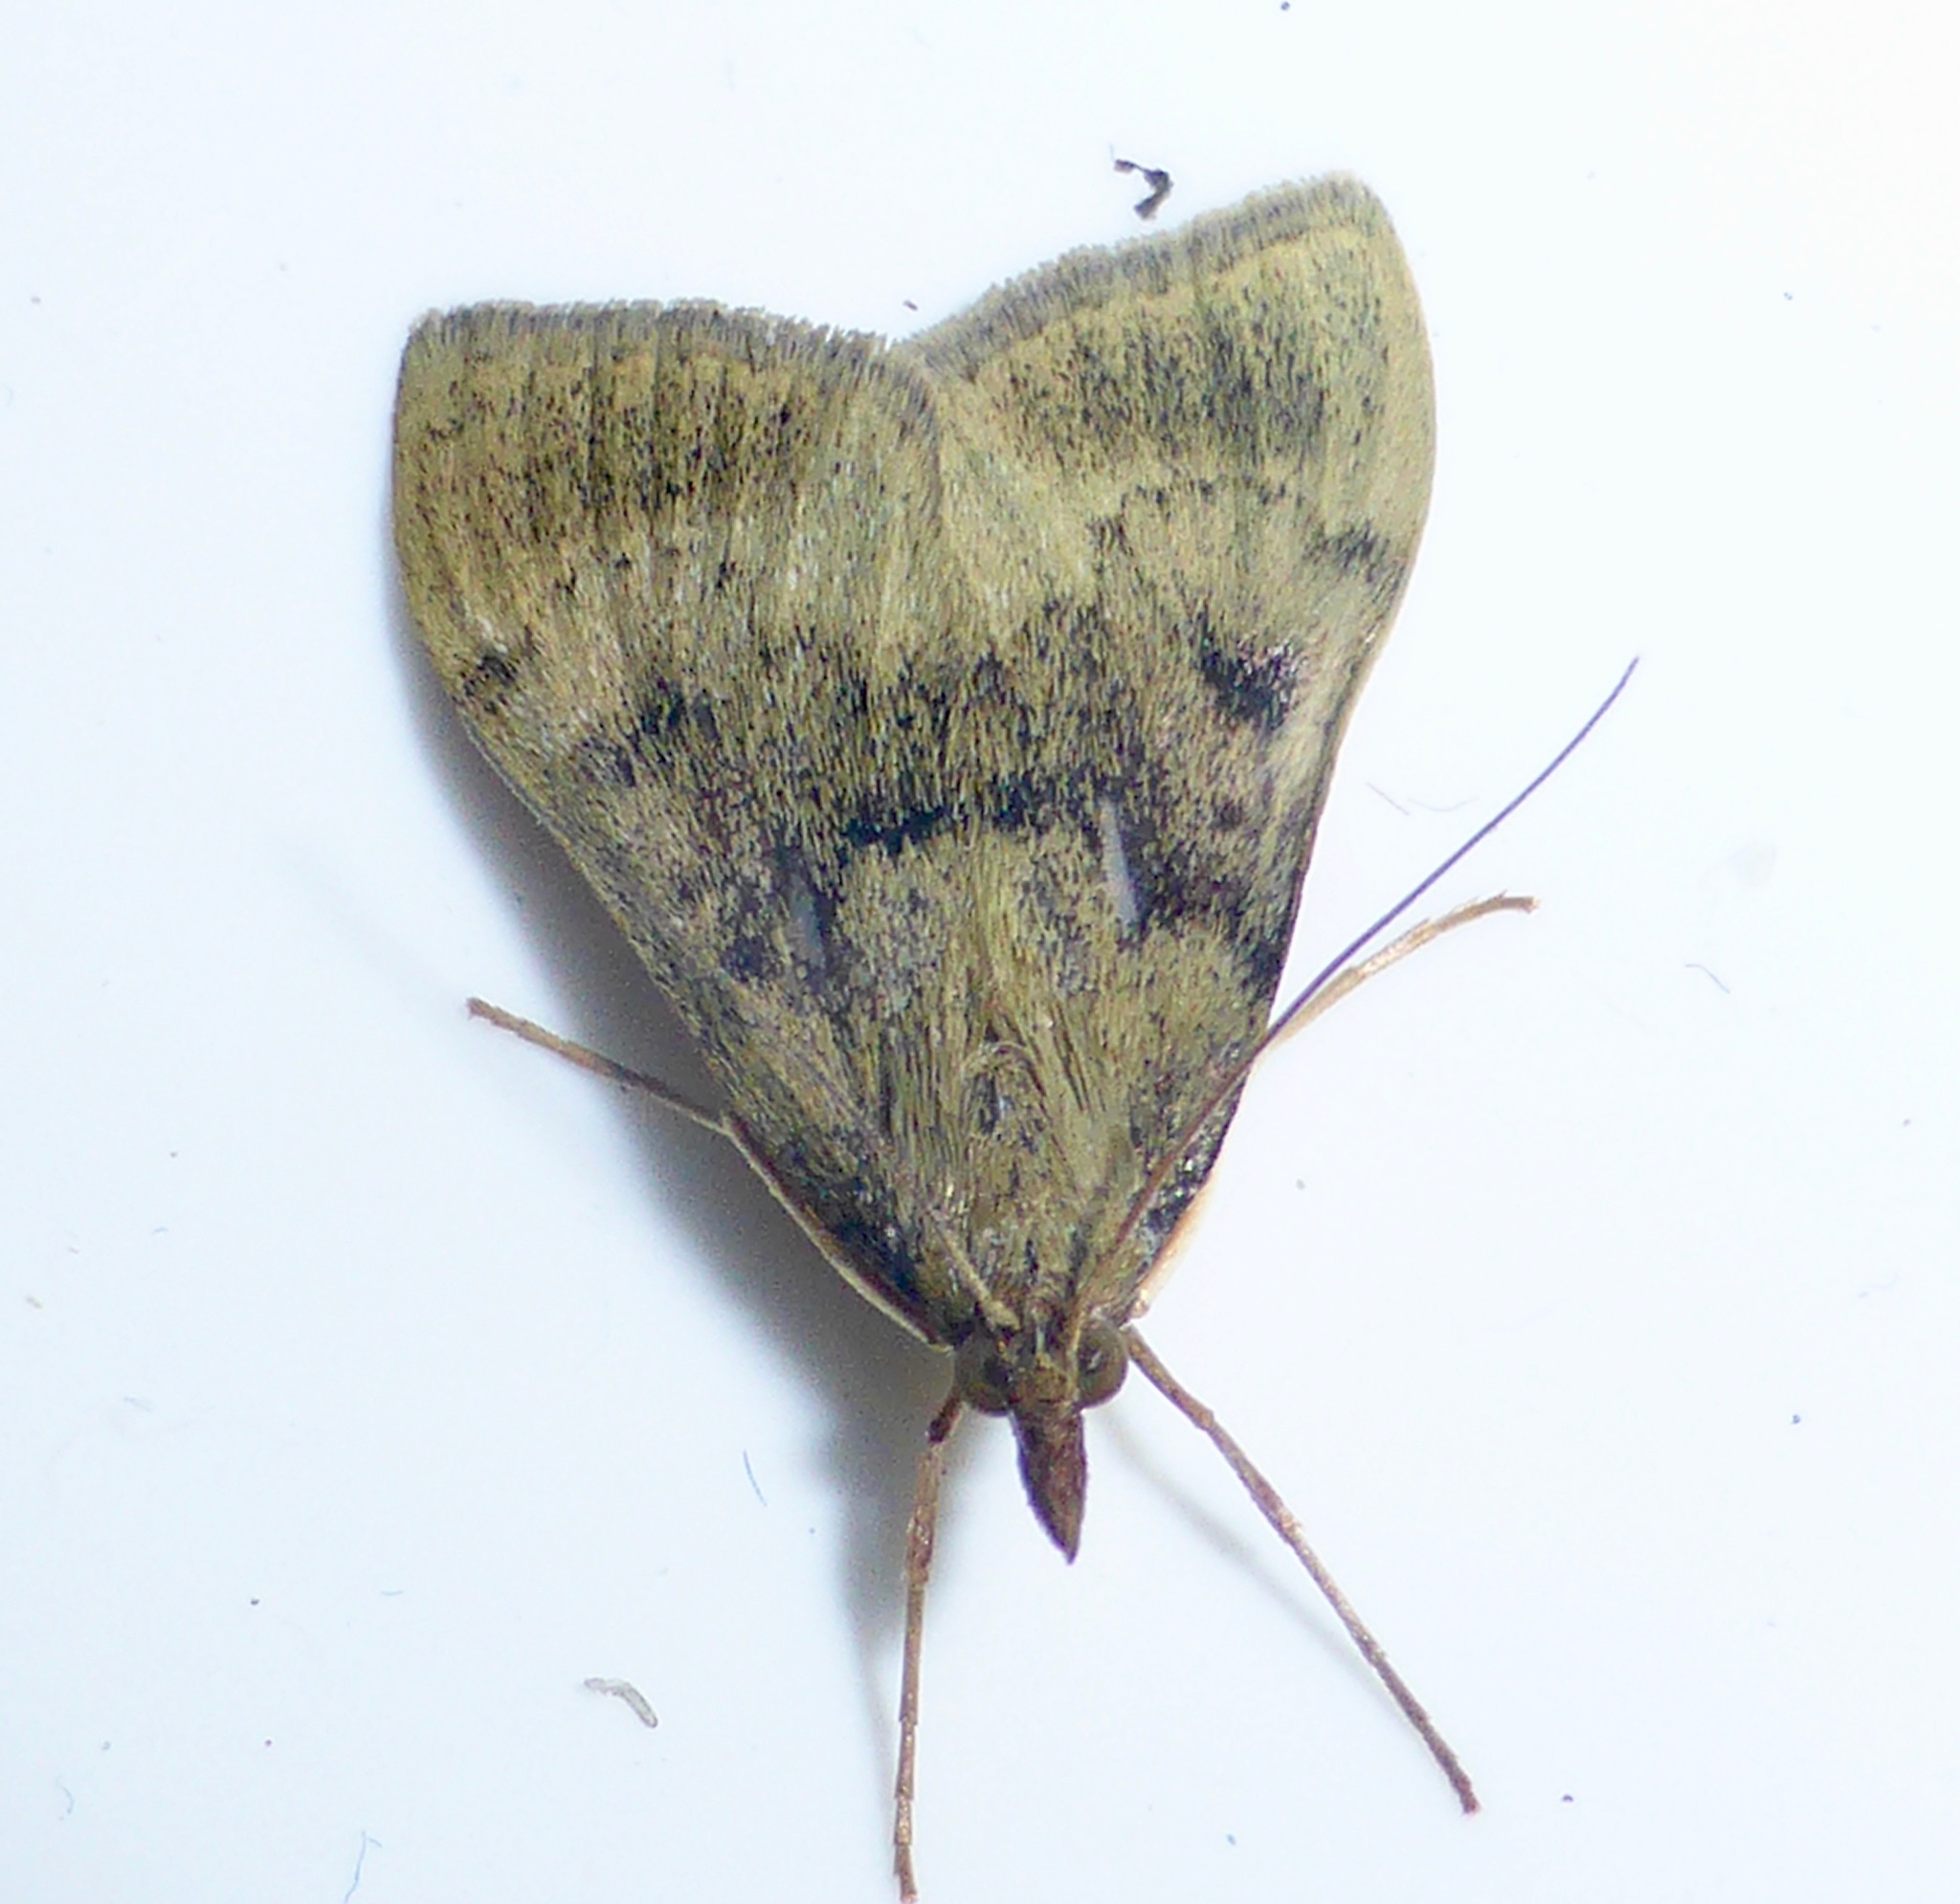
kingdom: Animalia
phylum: Arthropoda
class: Insecta
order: Lepidoptera
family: Crambidae
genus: Uresiphita
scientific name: Uresiphita
